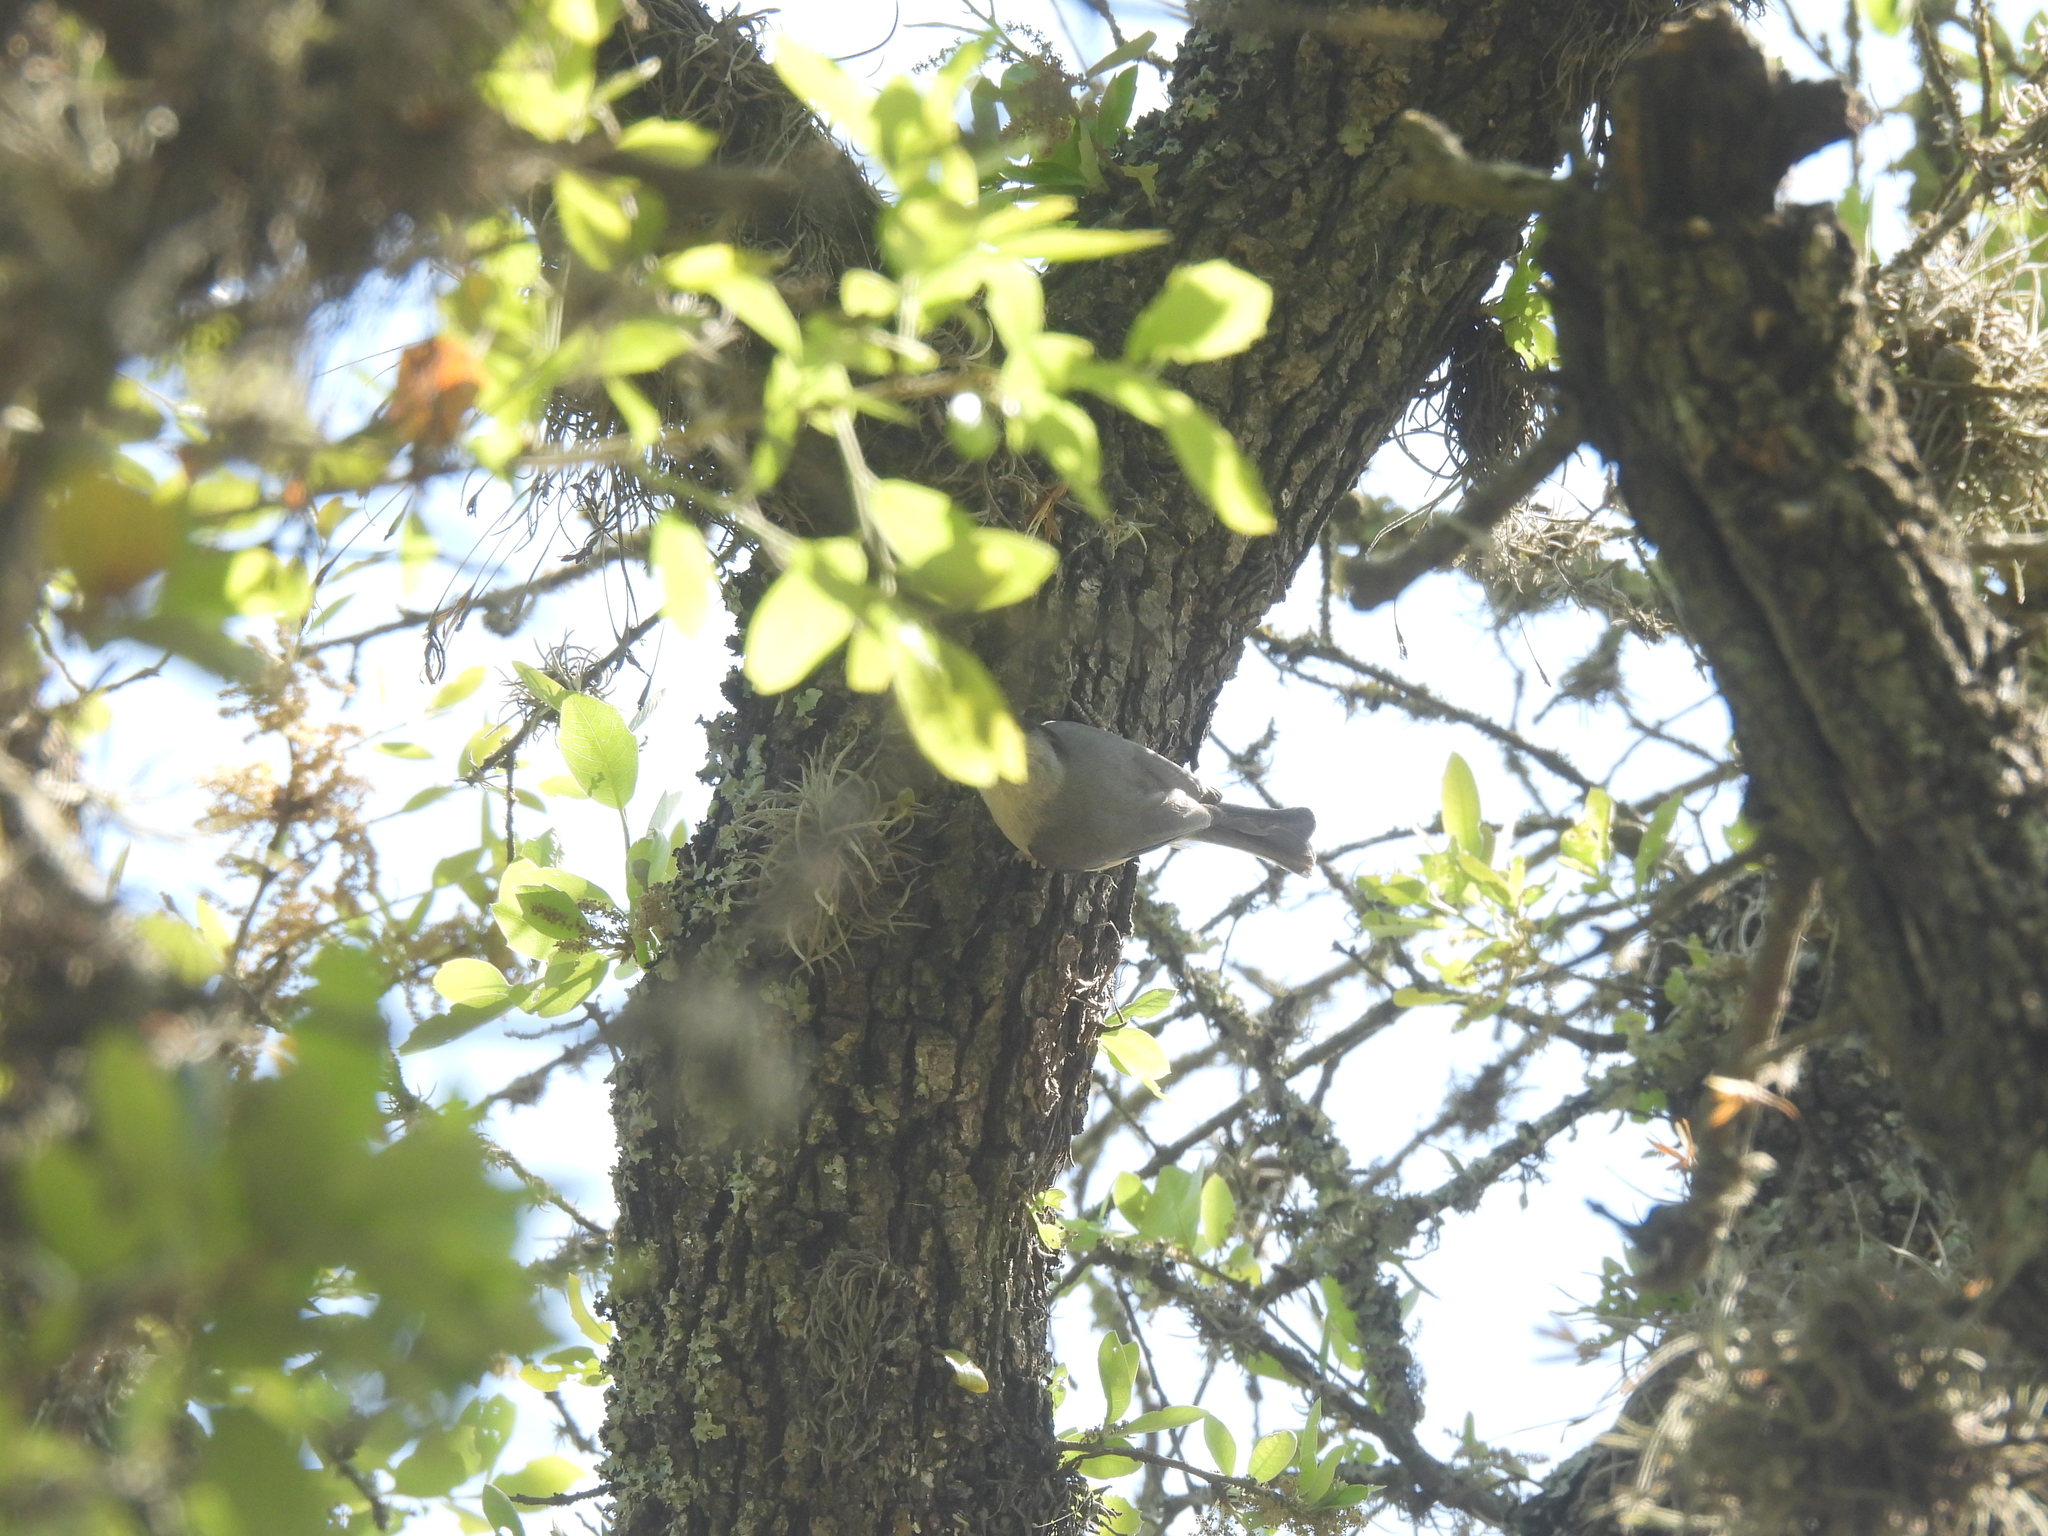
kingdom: Animalia
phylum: Chordata
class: Aves
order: Passeriformes
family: Paridae
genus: Baeolophus
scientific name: Baeolophus atricristatus
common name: Black-crested titmouse
